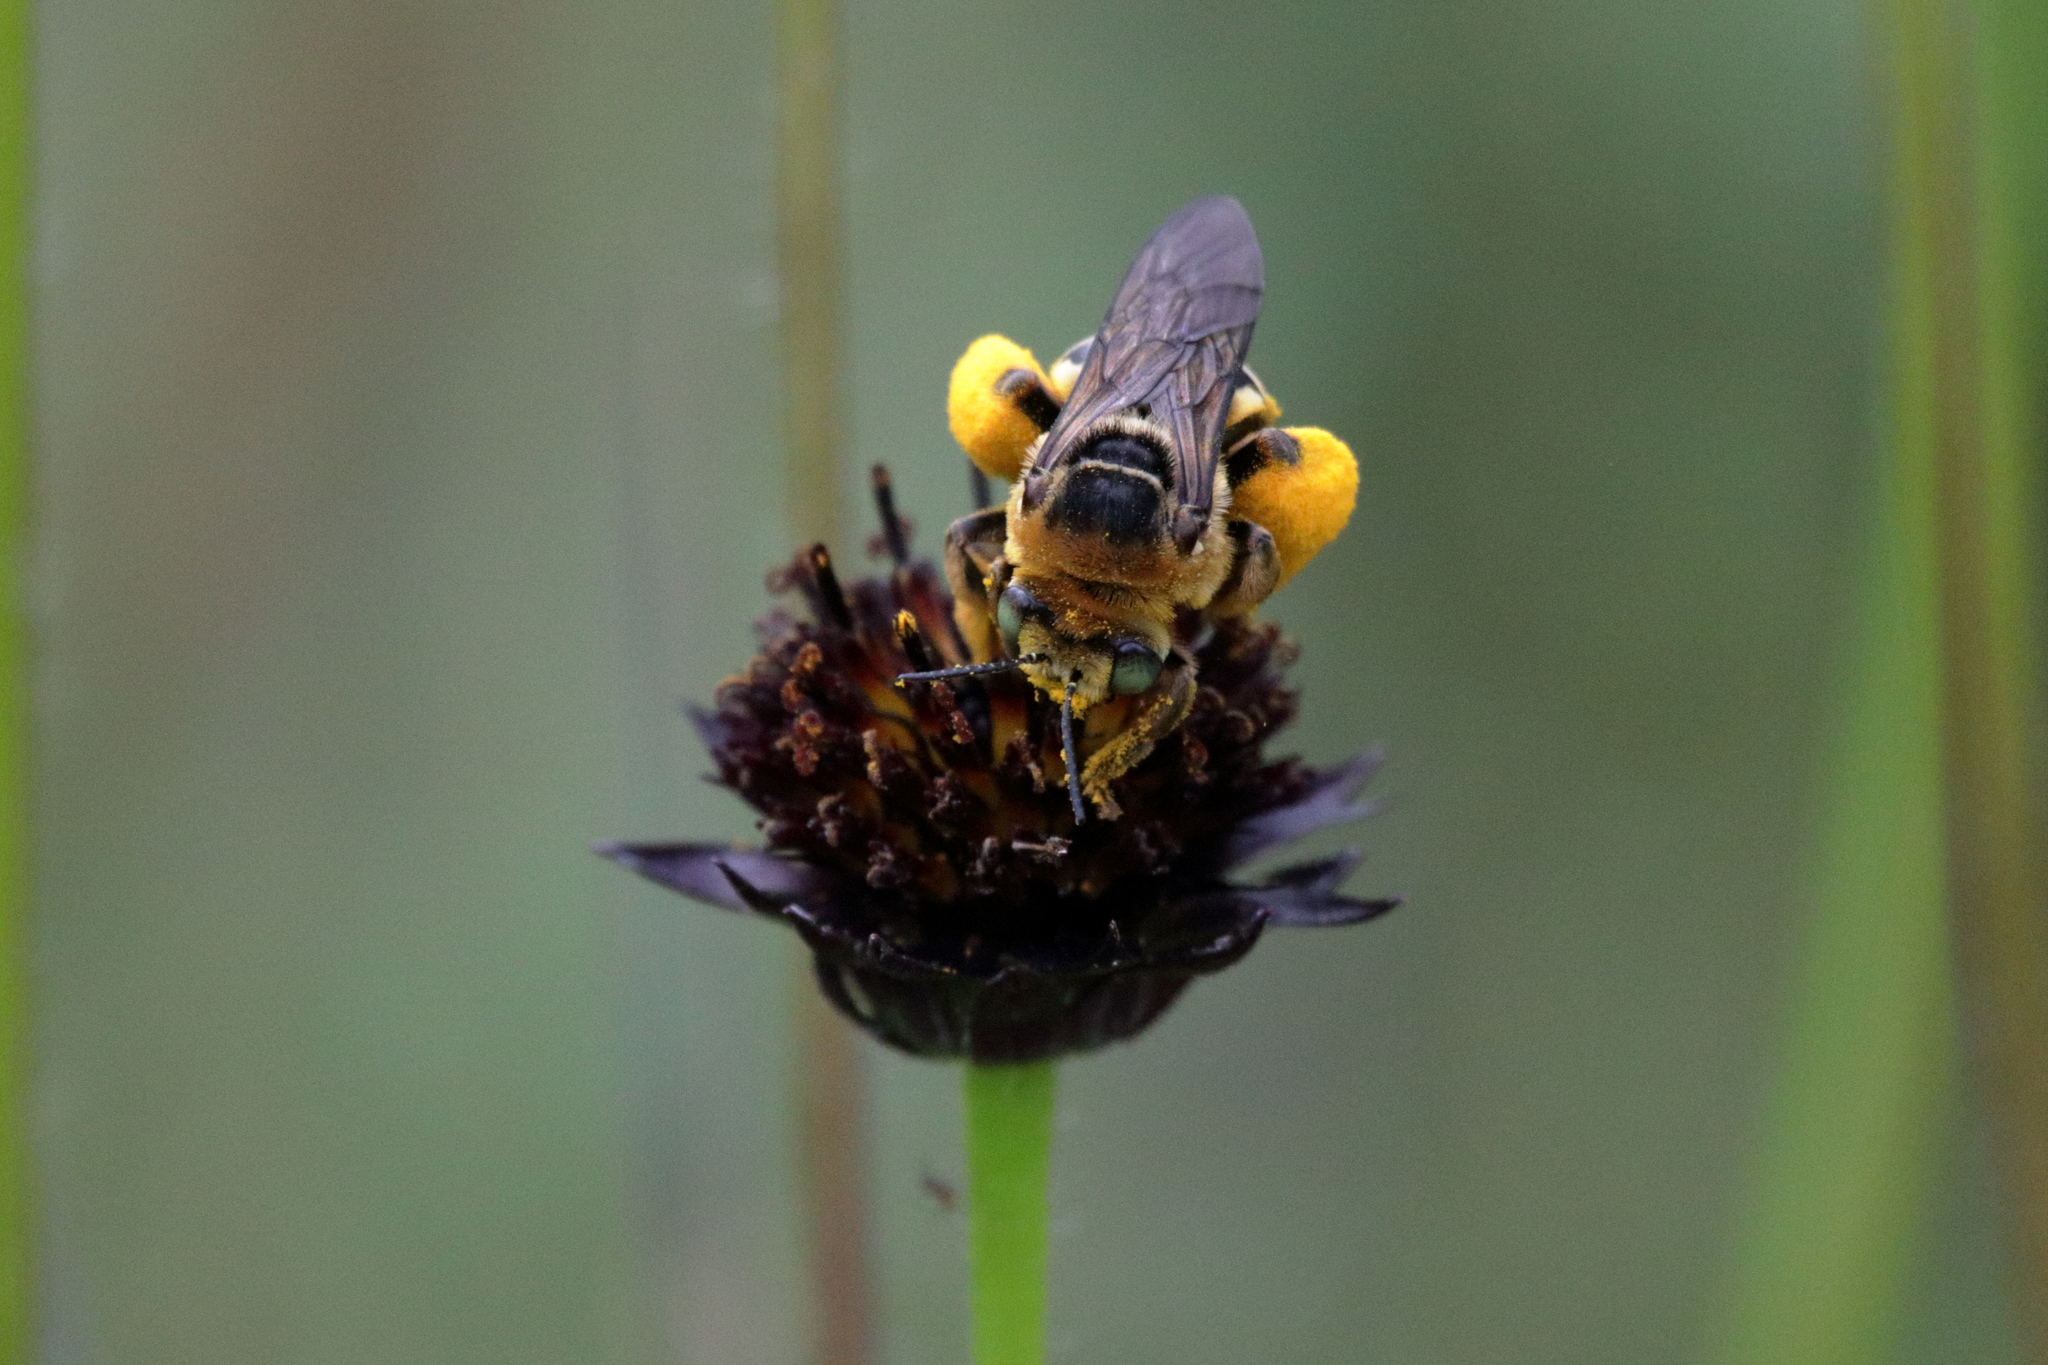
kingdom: Animalia
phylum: Arthropoda
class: Insecta
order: Hymenoptera
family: Apidae
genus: Svastra
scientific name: Svastra aegis
